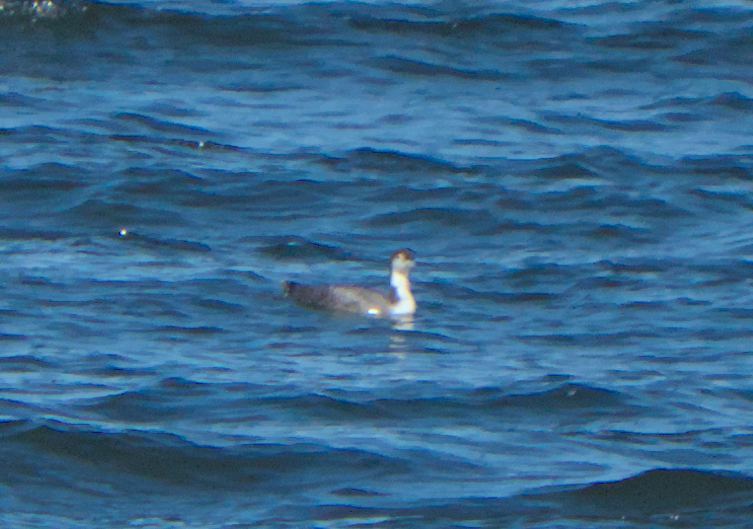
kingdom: Animalia
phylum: Chordata
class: Aves
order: Gaviiformes
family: Gaviidae
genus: Gavia
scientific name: Gavia immer
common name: Common loon
